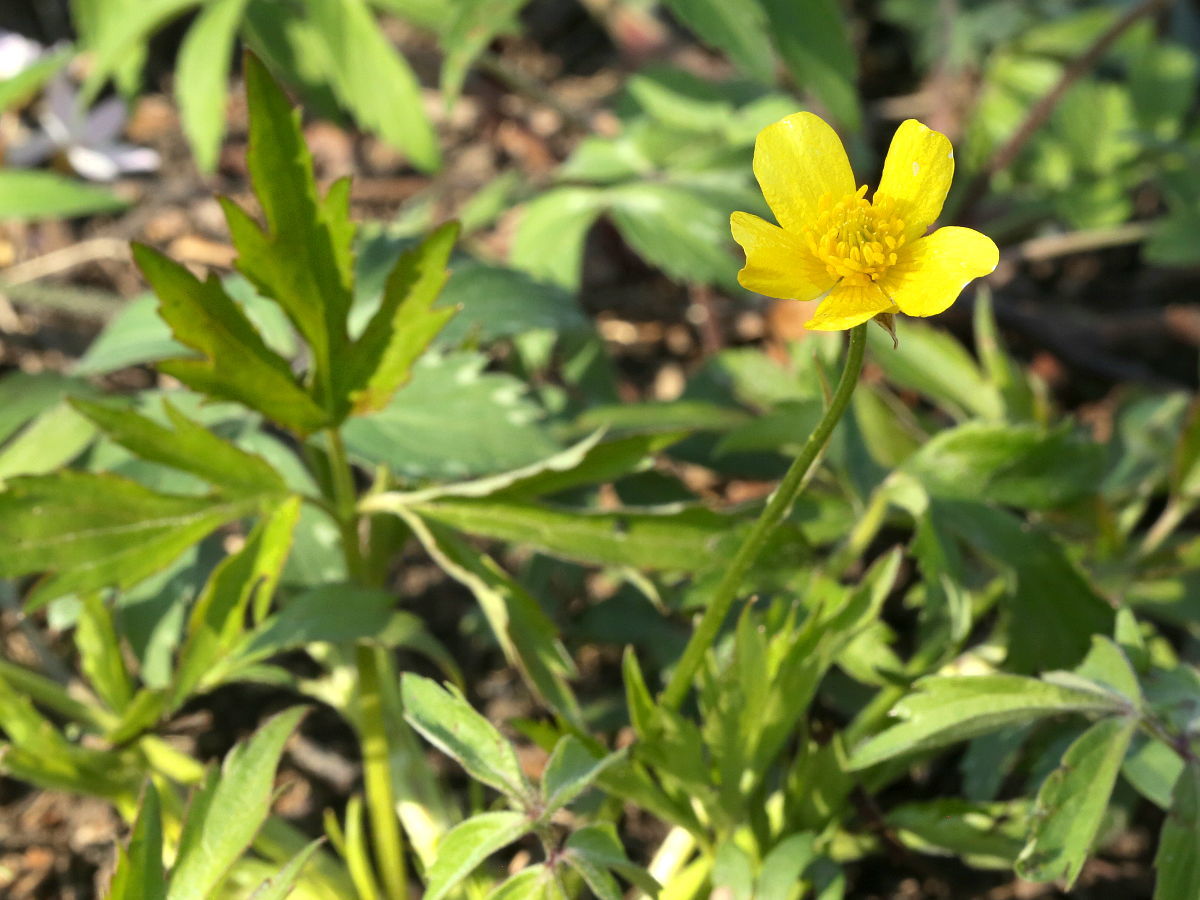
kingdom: Plantae
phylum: Tracheophyta
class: Magnoliopsida
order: Ranunculales
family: Ranunculaceae
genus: Ranunculus
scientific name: Ranunculus hispidus
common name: Bristly buttercup
